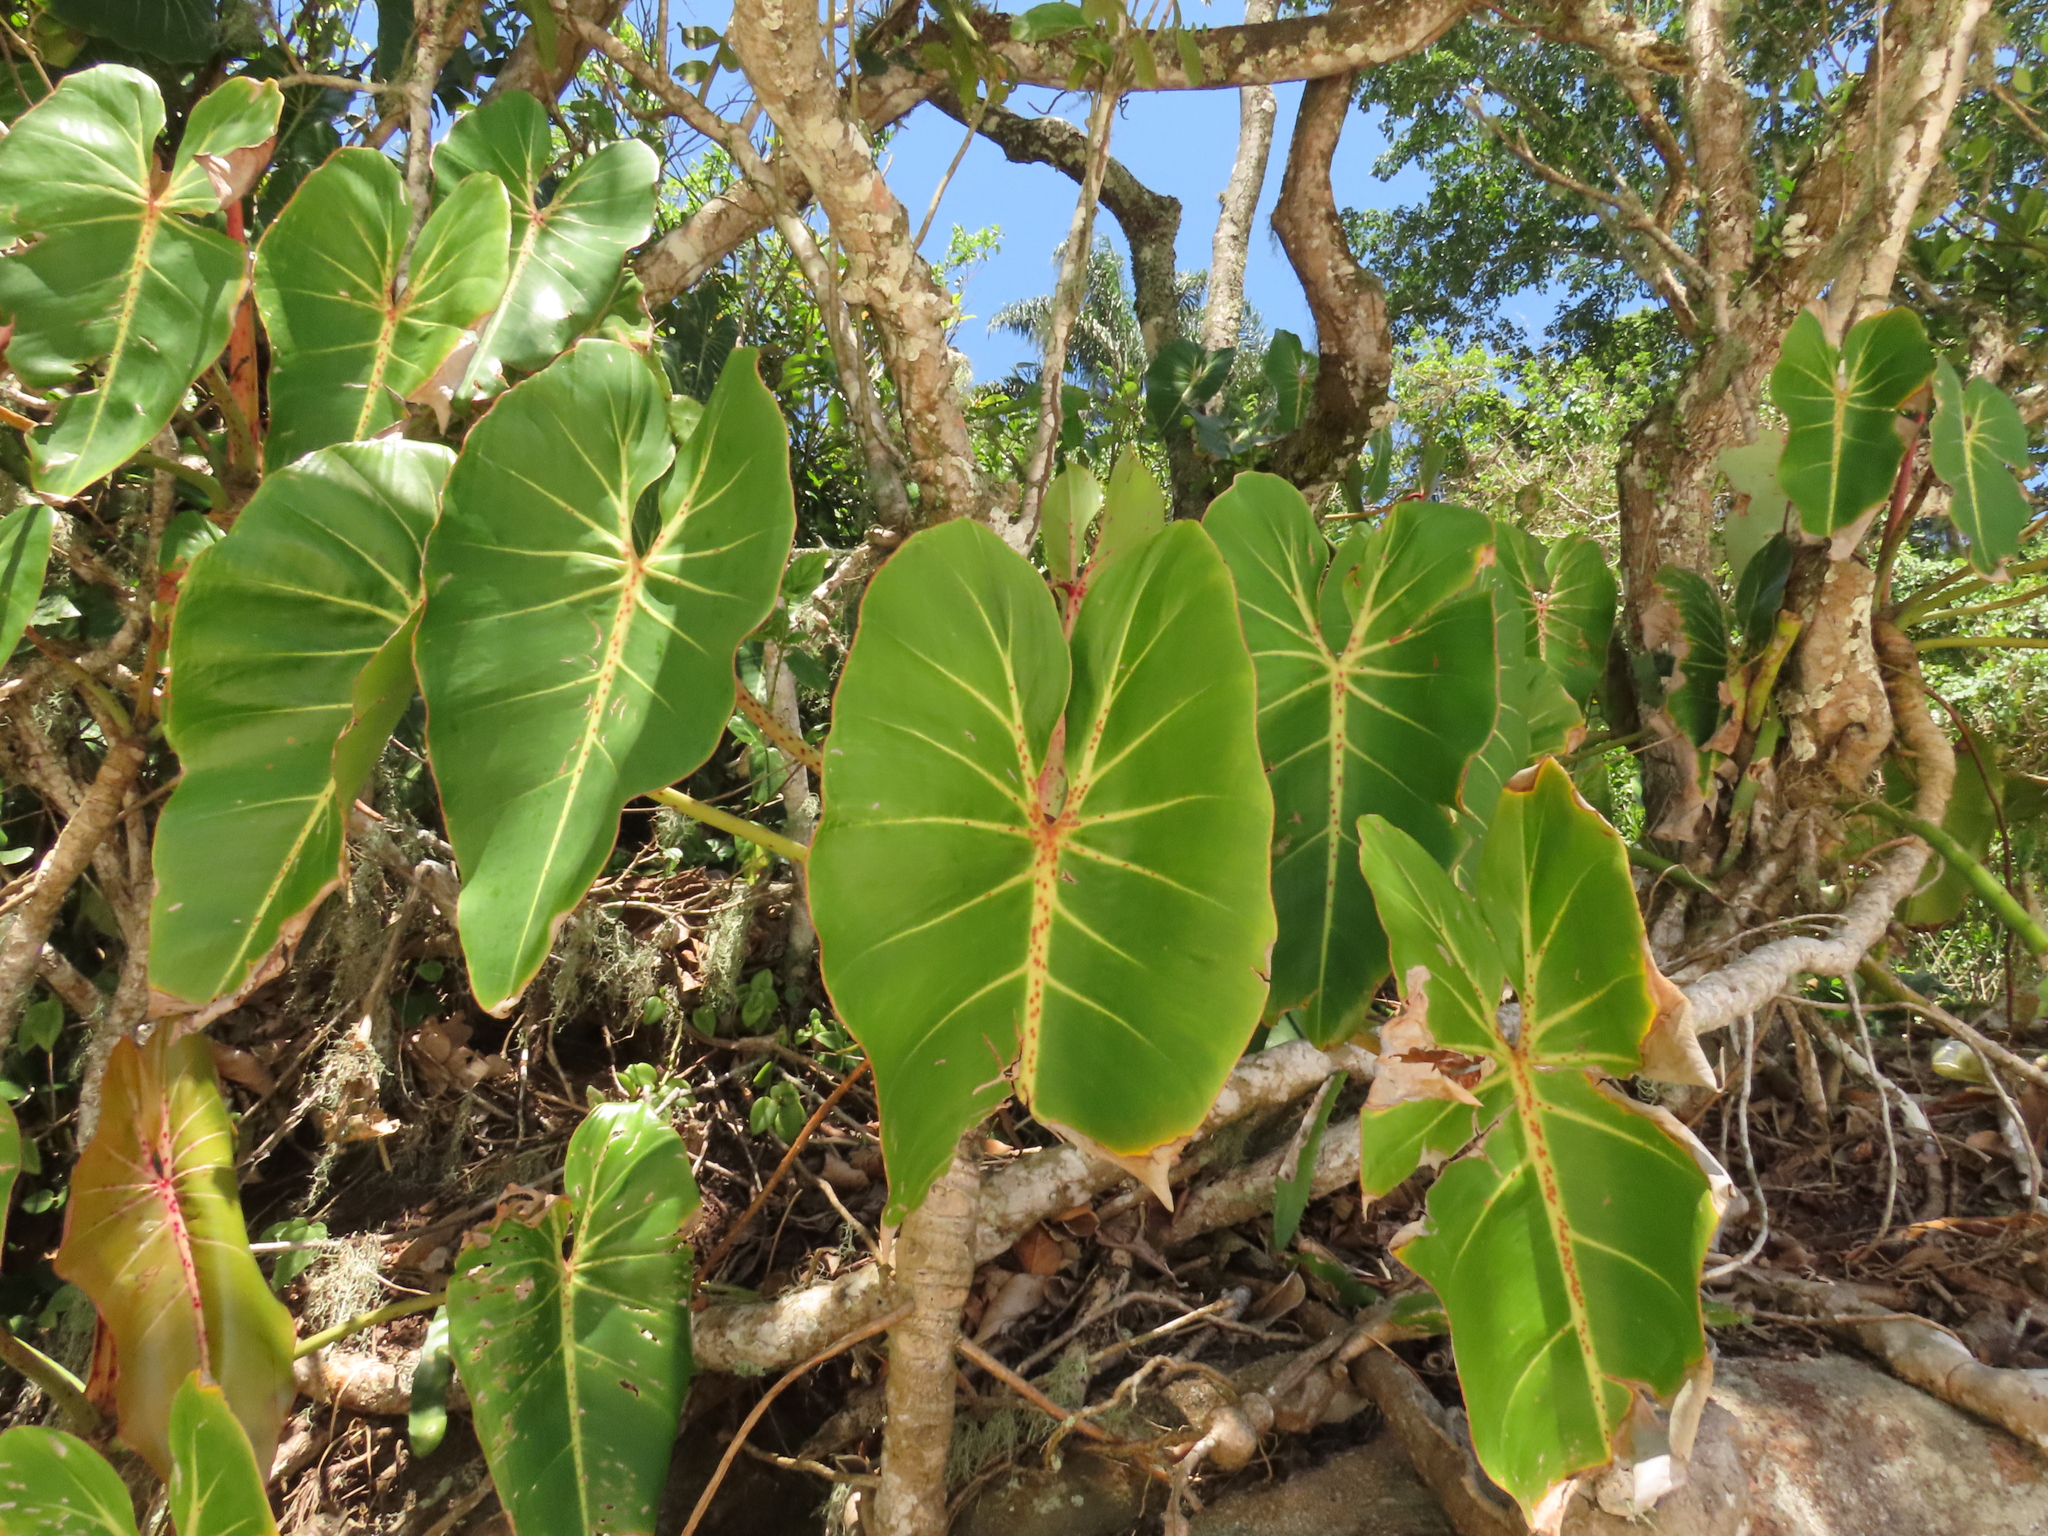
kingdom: Plantae
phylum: Tracheophyta
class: Liliopsida
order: Alismatales
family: Araceae
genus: Philodendron
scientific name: Philodendron cordatum
